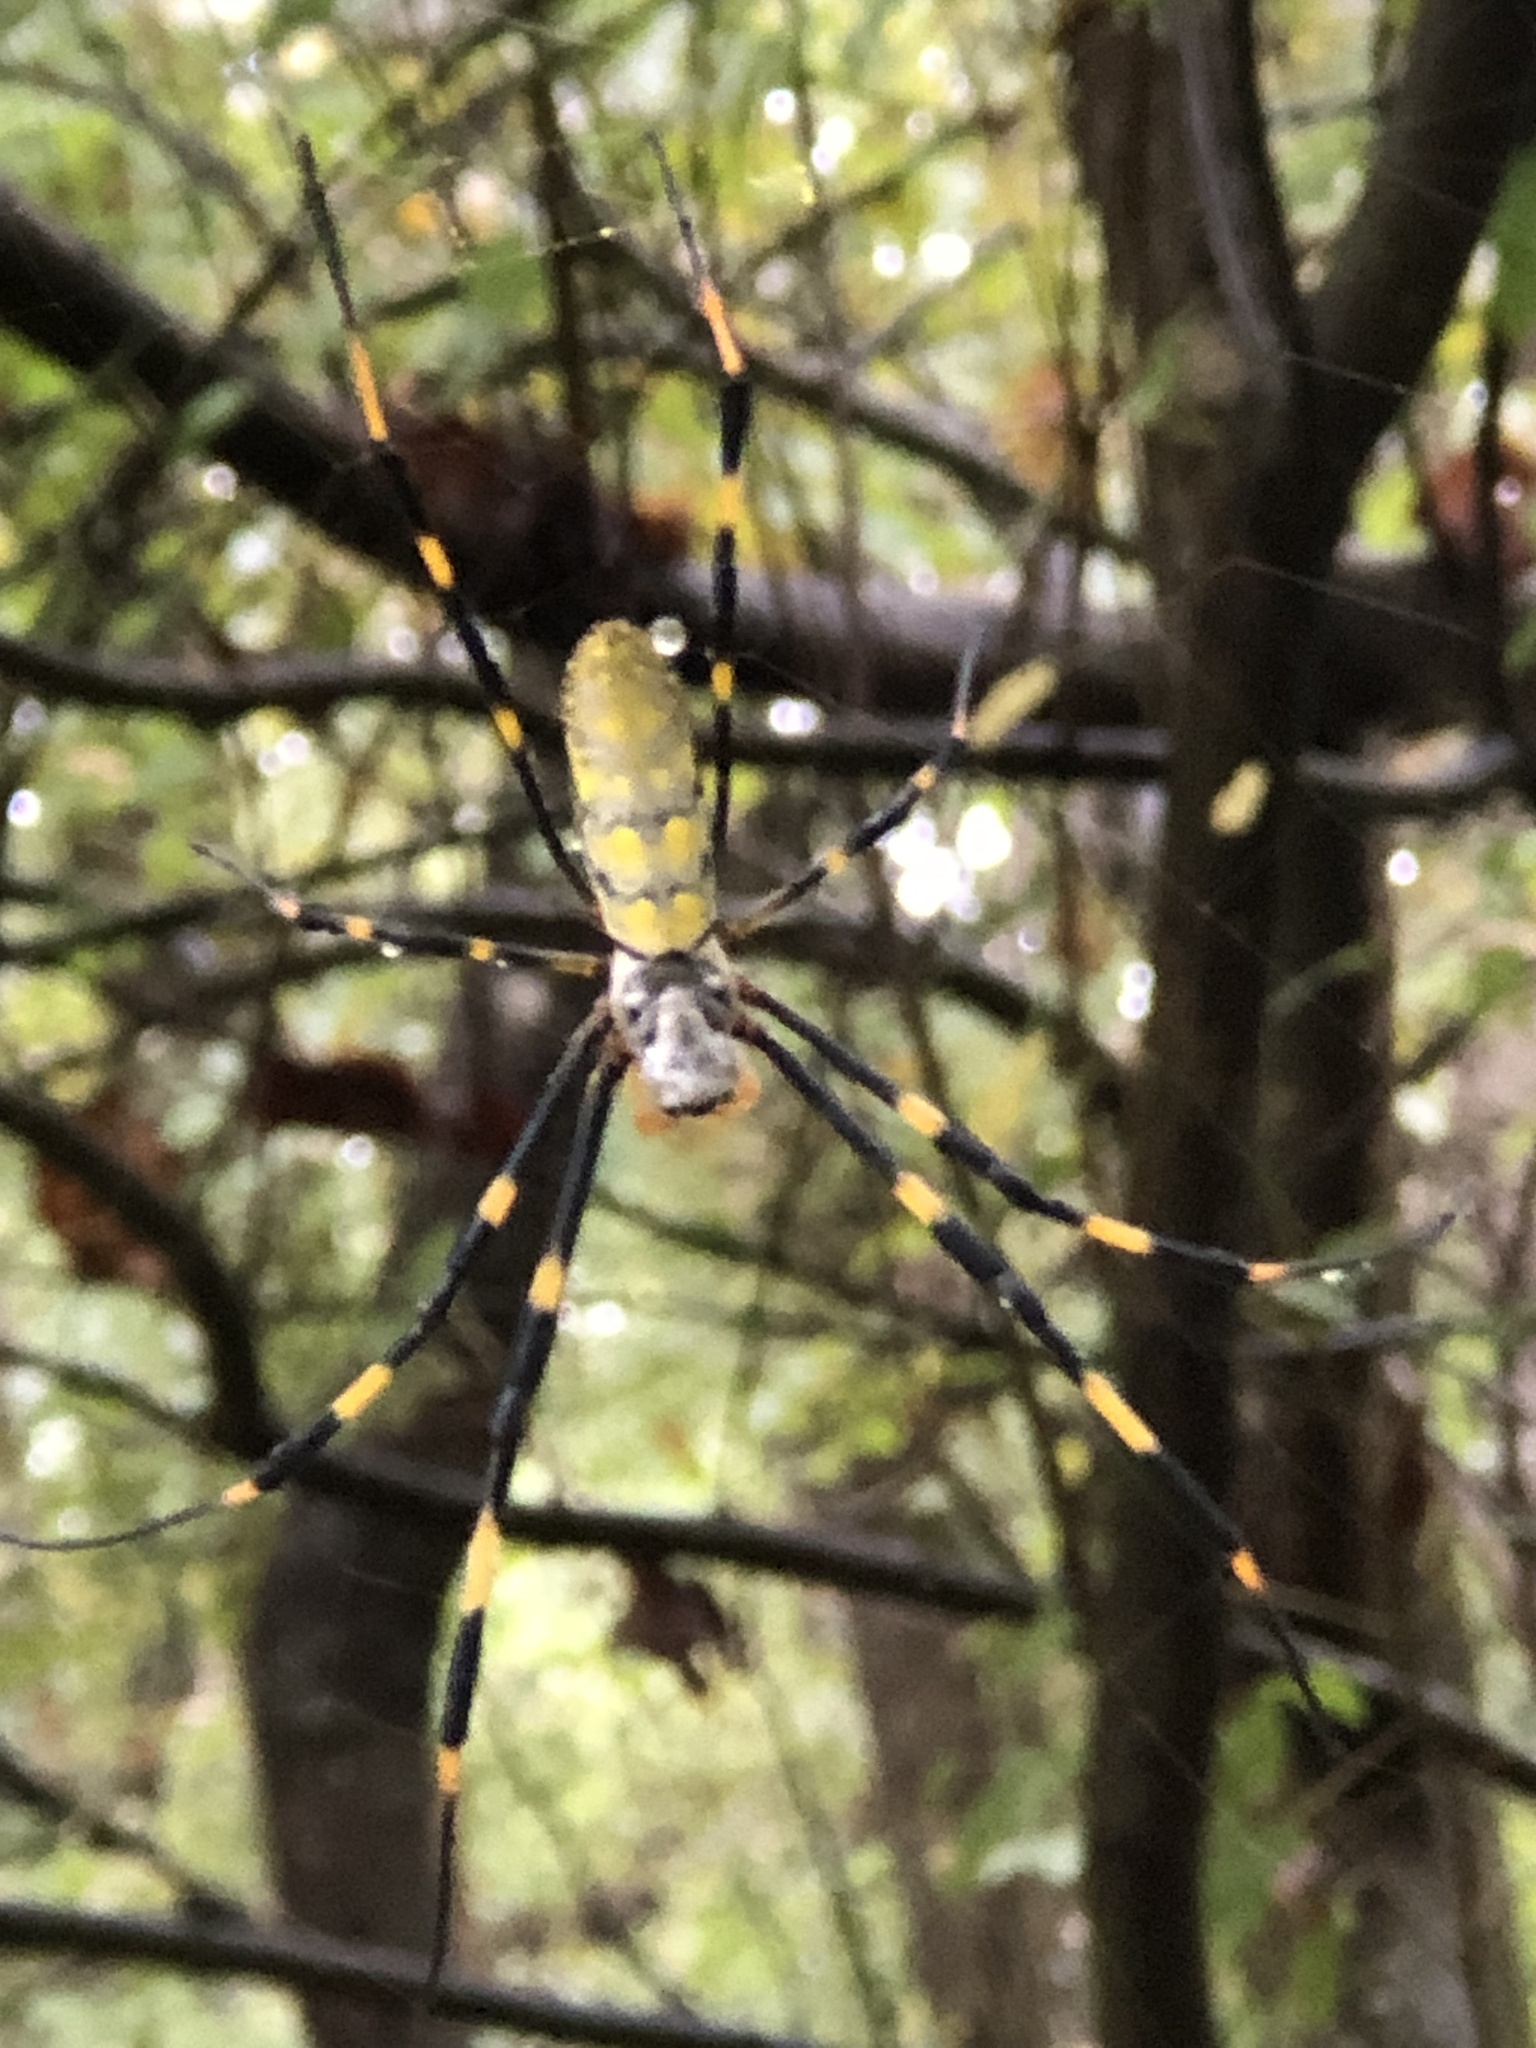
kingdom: Animalia
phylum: Arthropoda
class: Arachnida
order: Araneae
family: Araneidae
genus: Trichonephila
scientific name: Trichonephila clavata
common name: Jorō spider
